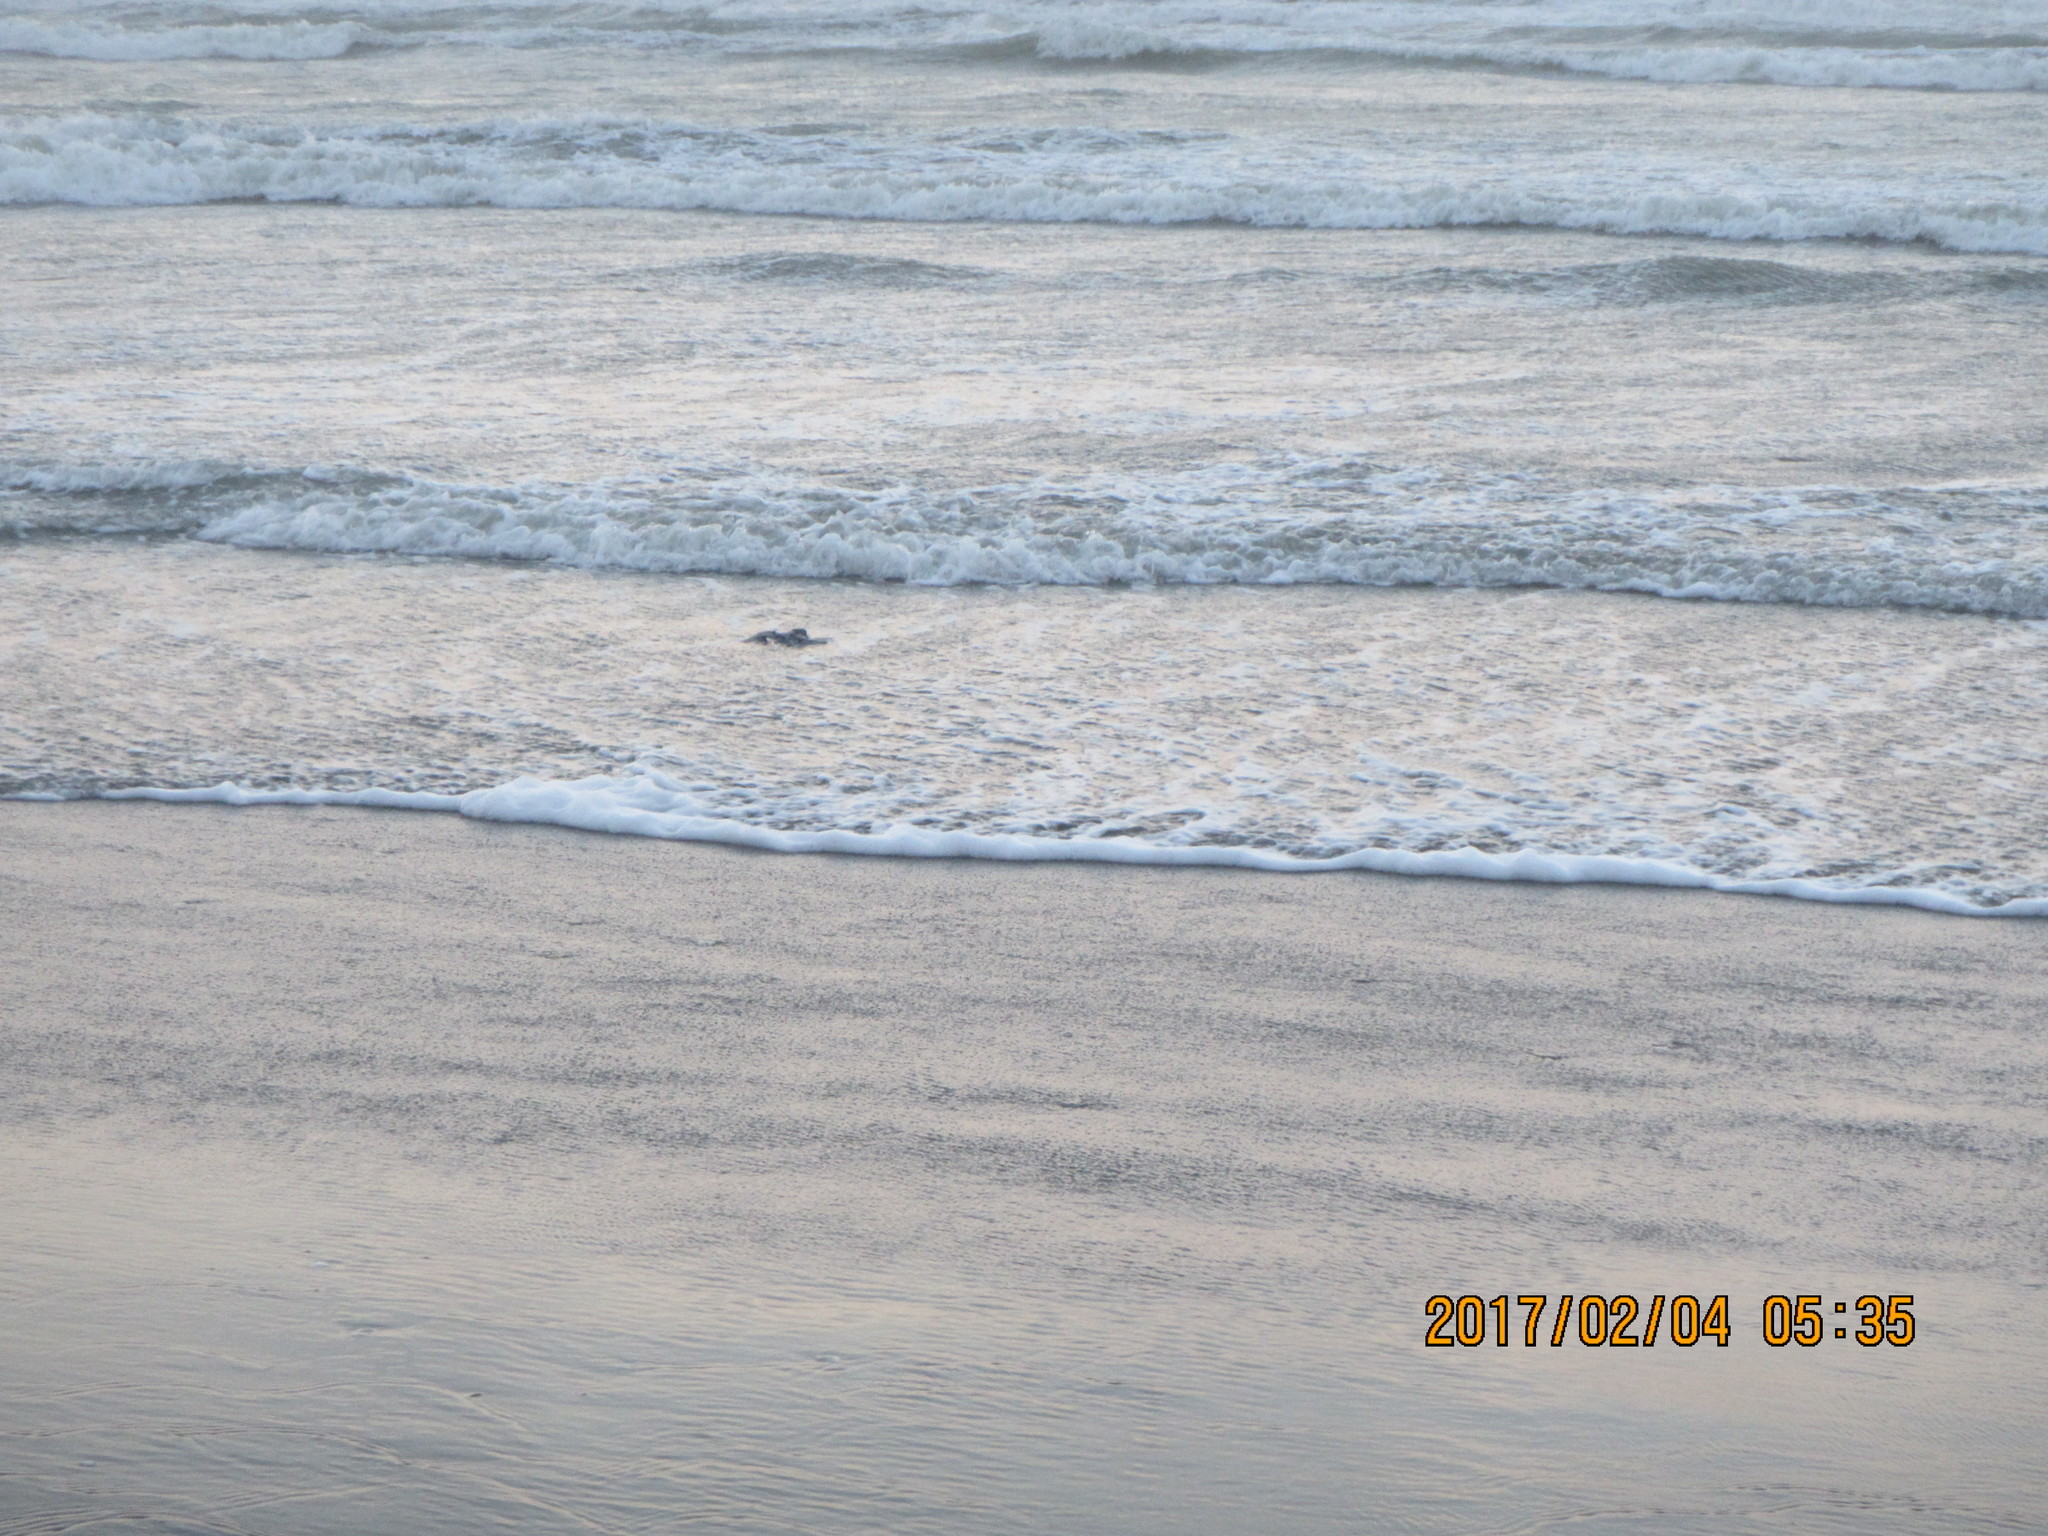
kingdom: Animalia
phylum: Chordata
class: Aves
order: Procellariiformes
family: Procellariidae
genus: Pachyptila
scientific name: Pachyptila turtur
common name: Fairy prion
